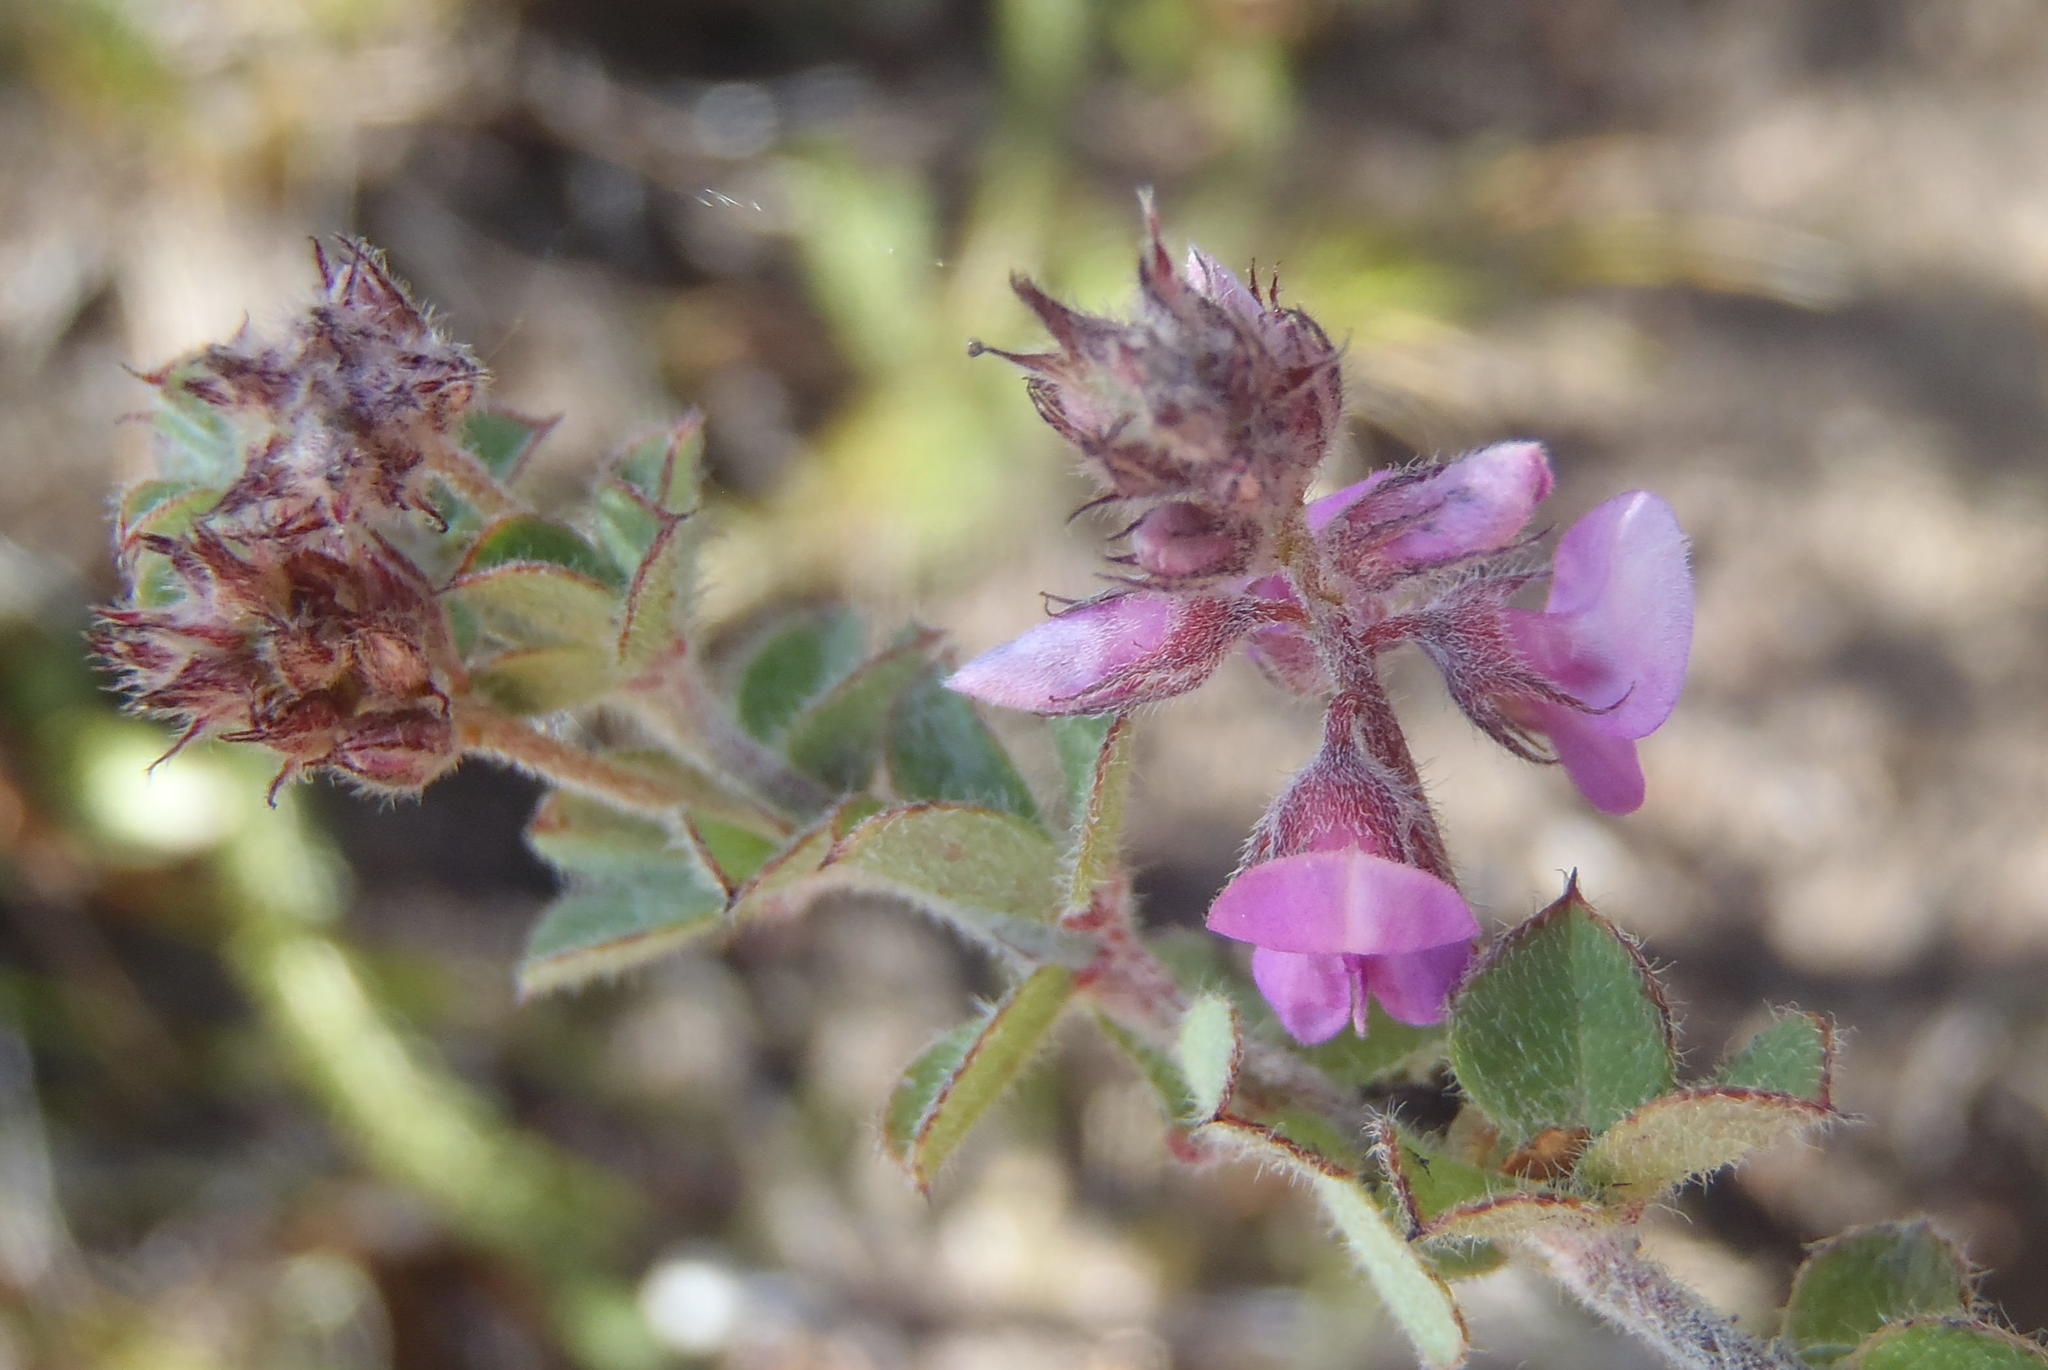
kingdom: Plantae
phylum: Tracheophyta
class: Magnoliopsida
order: Fabales
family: Fabaceae
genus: Indigofera
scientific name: Indigofera alopecuroides
